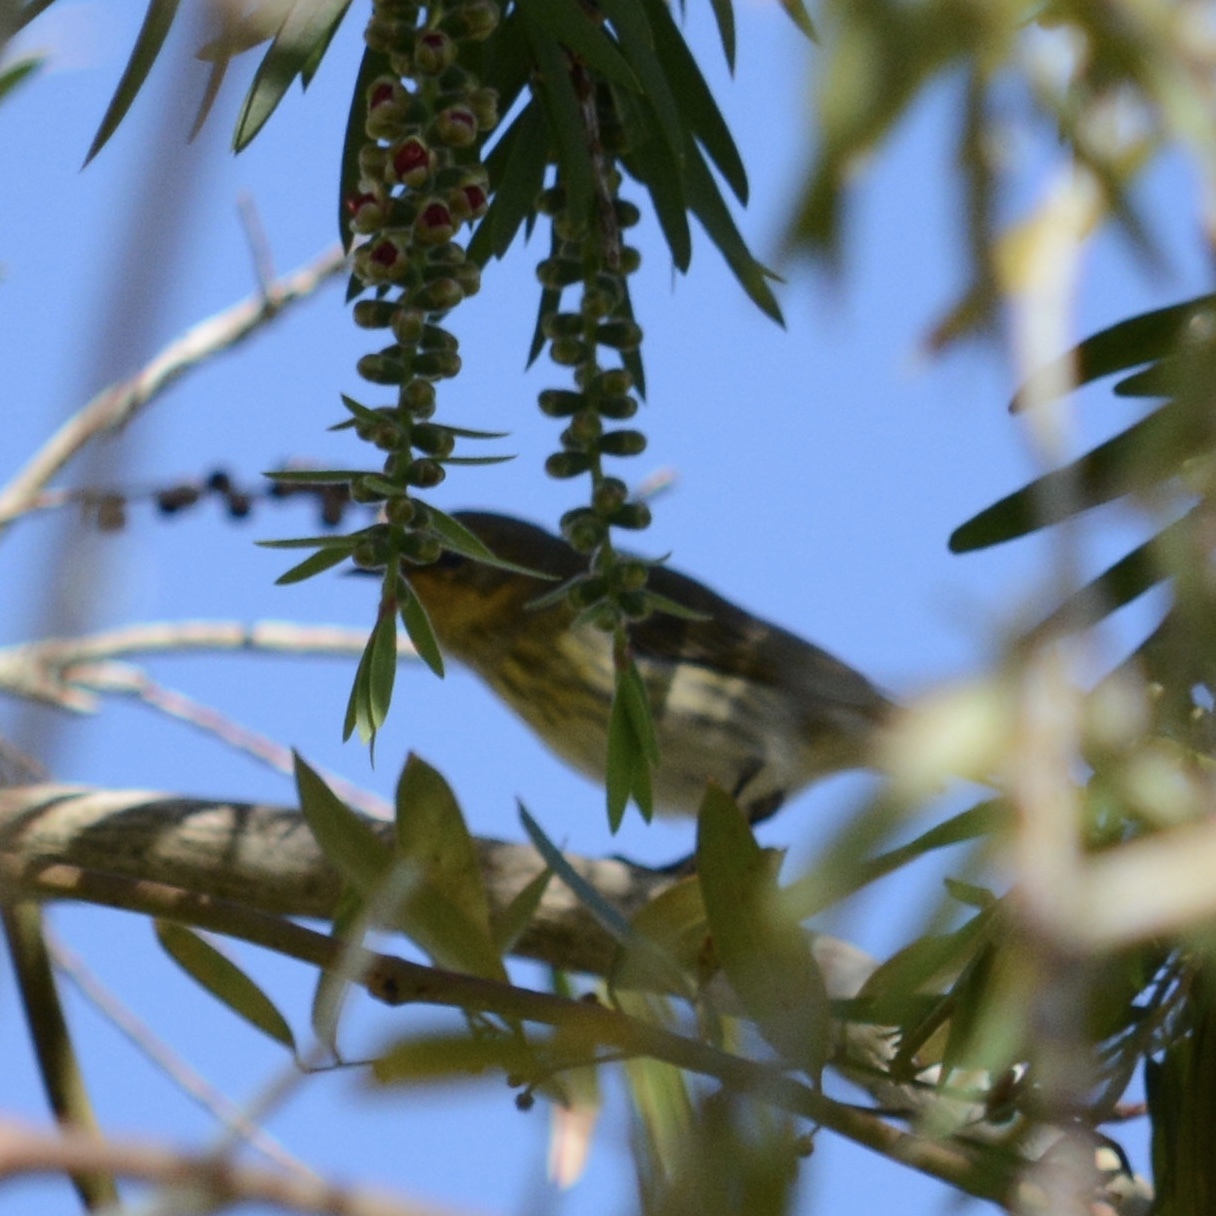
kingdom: Animalia
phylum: Chordata
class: Aves
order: Passeriformes
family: Parulidae
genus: Setophaga
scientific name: Setophaga tigrina
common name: Cape may warbler
